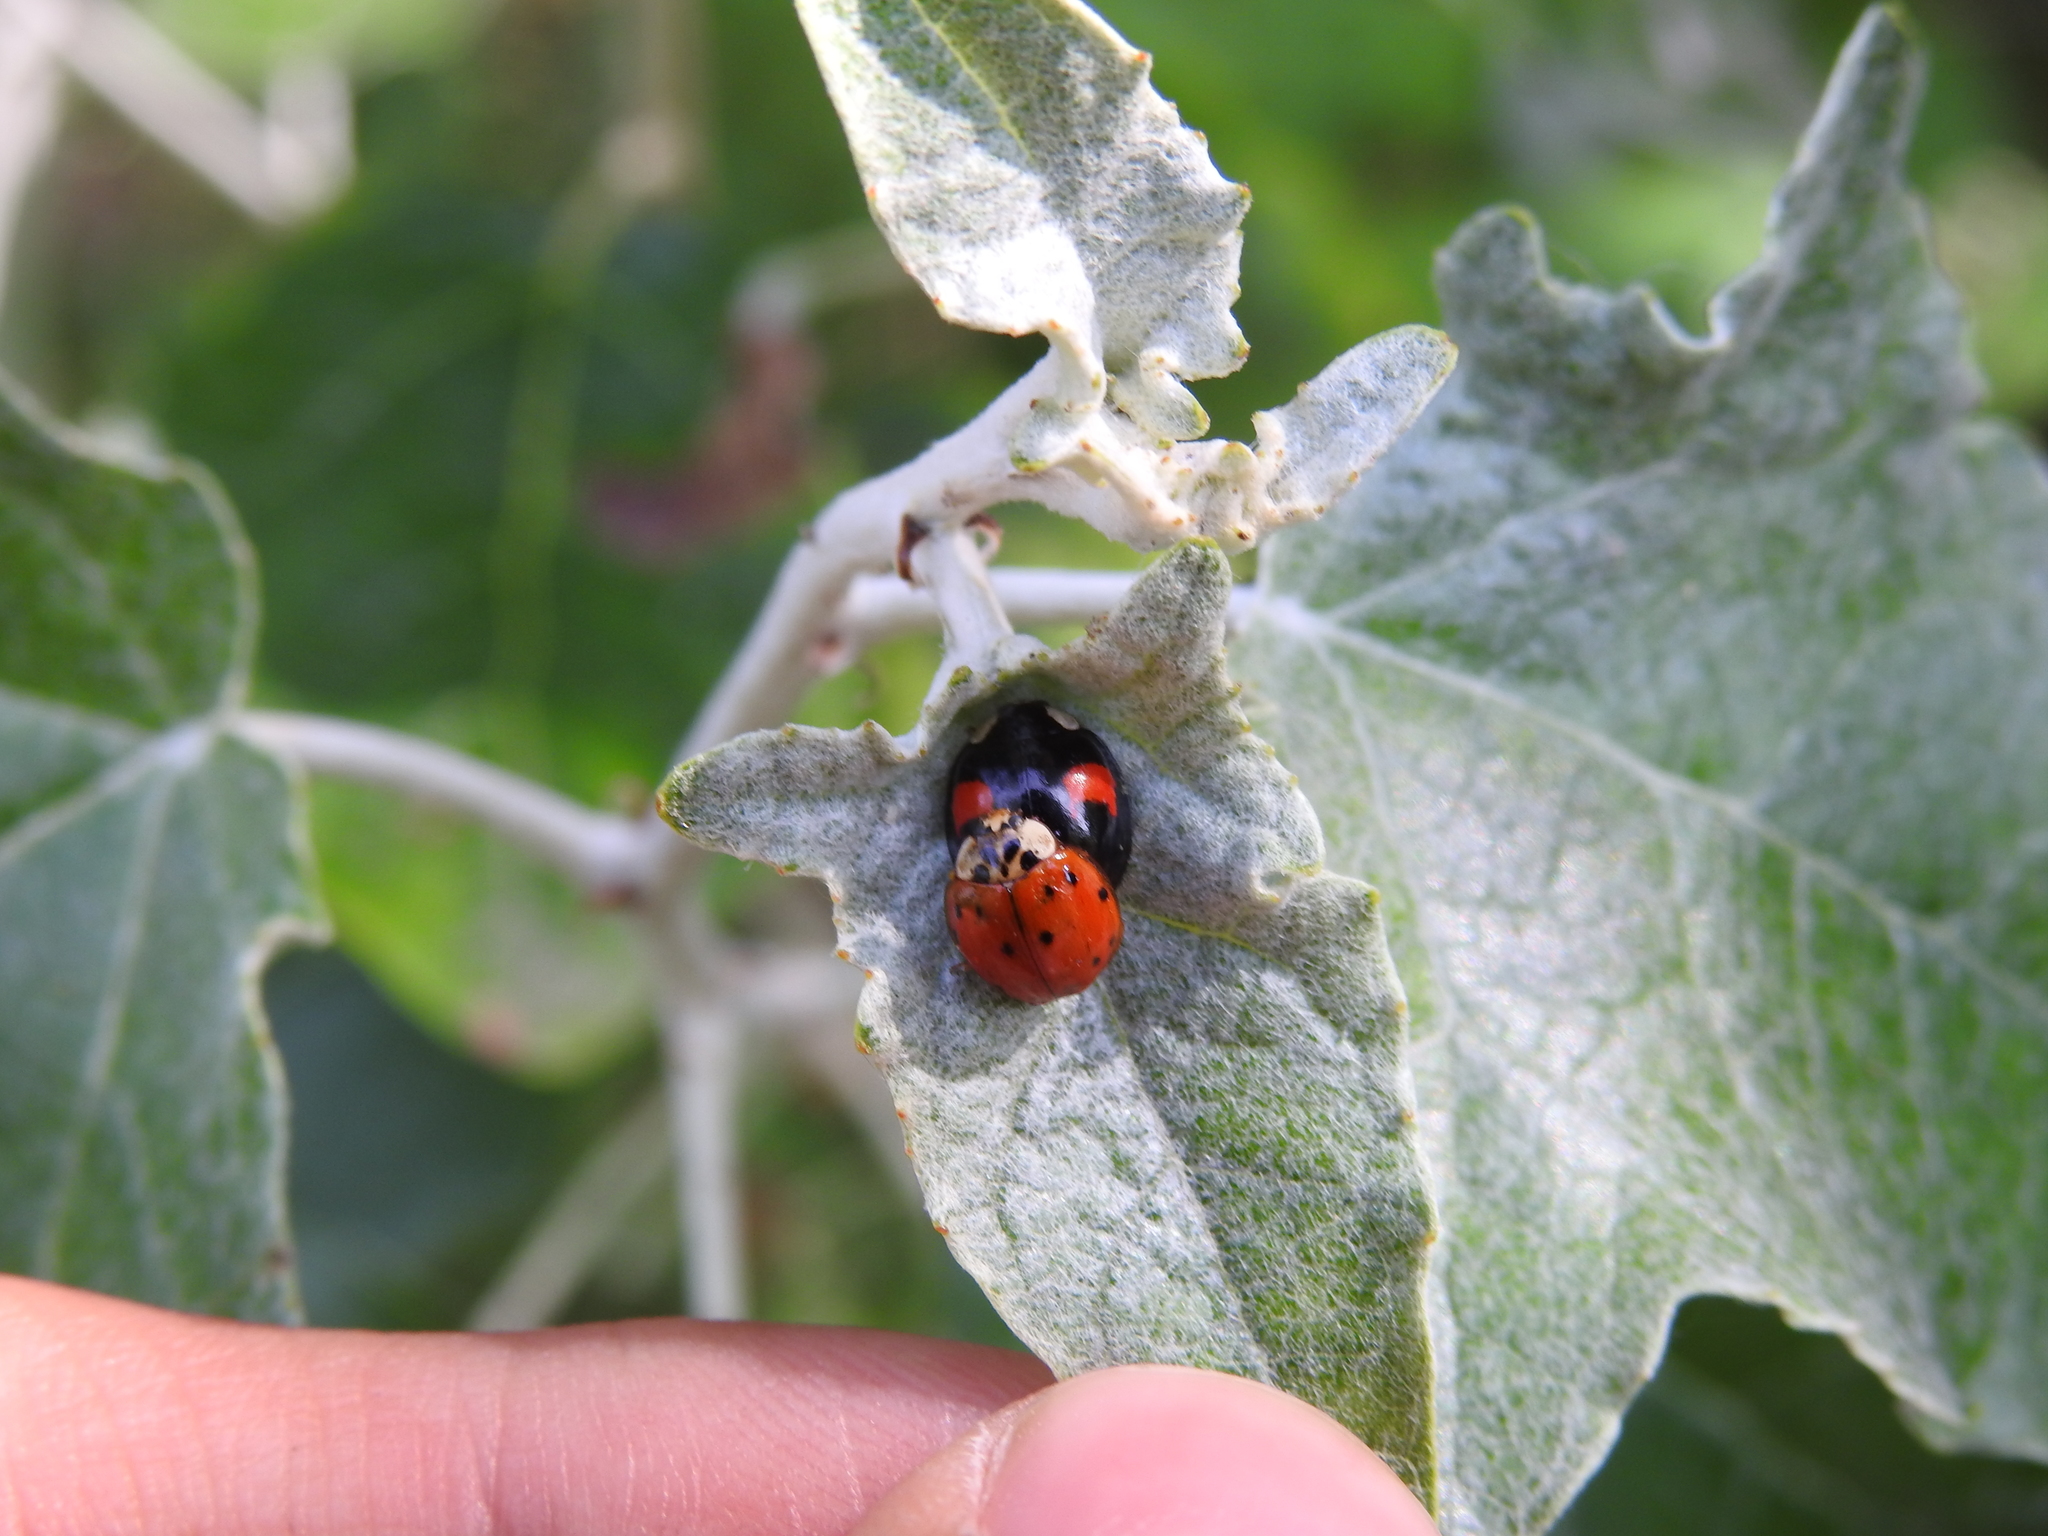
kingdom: Animalia
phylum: Arthropoda
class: Insecta
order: Coleoptera
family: Coccinellidae
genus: Harmonia
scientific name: Harmonia axyridis
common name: Harlequin ladybird
